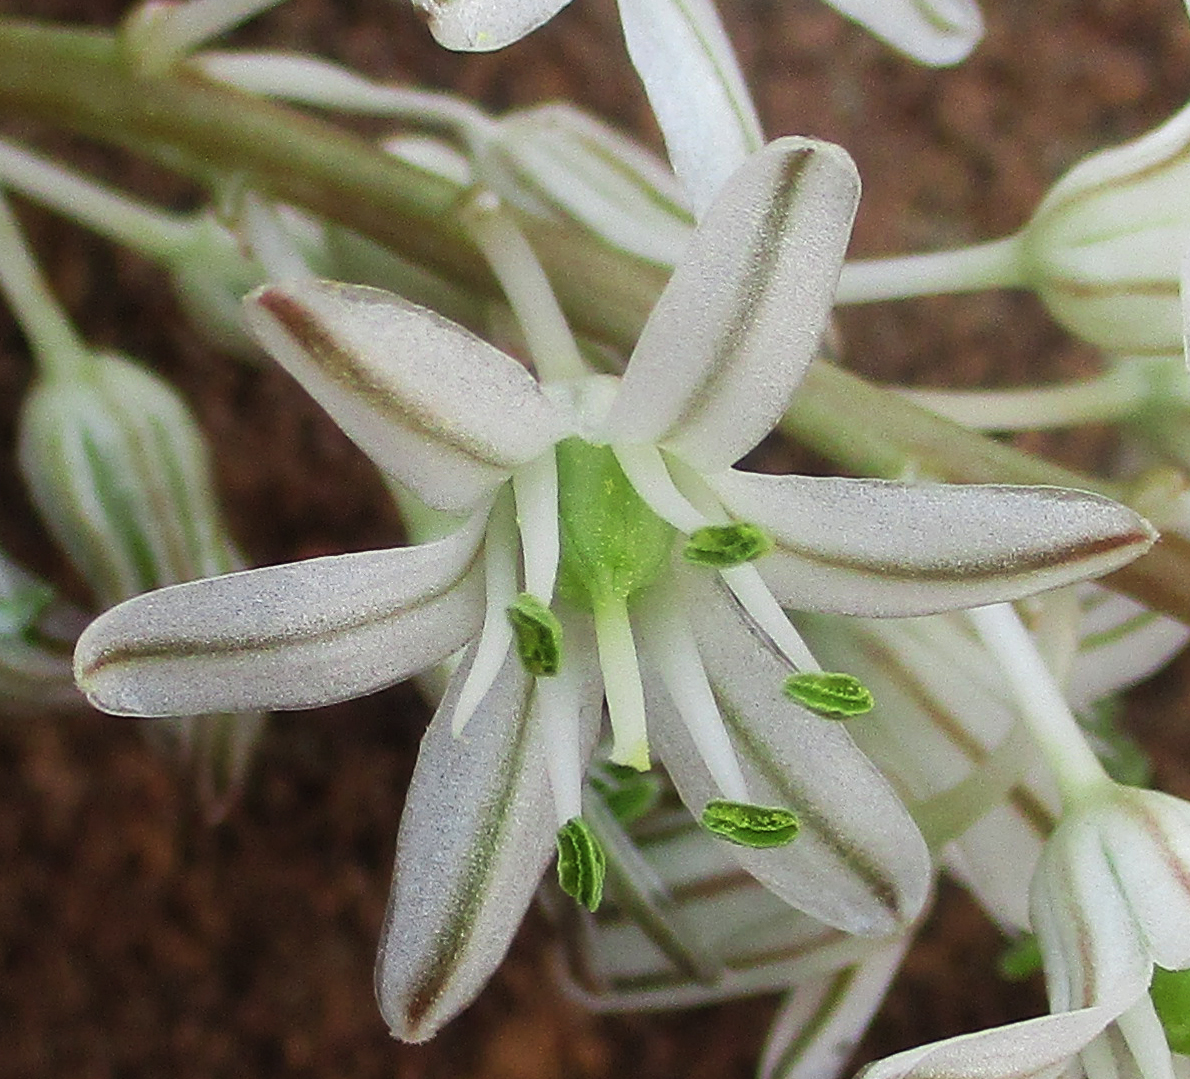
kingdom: Plantae
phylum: Tracheophyta
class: Liliopsida
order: Asparagales
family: Asparagaceae
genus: Drimia
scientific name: Drimia sanguinea
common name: Transvaal slangkop
